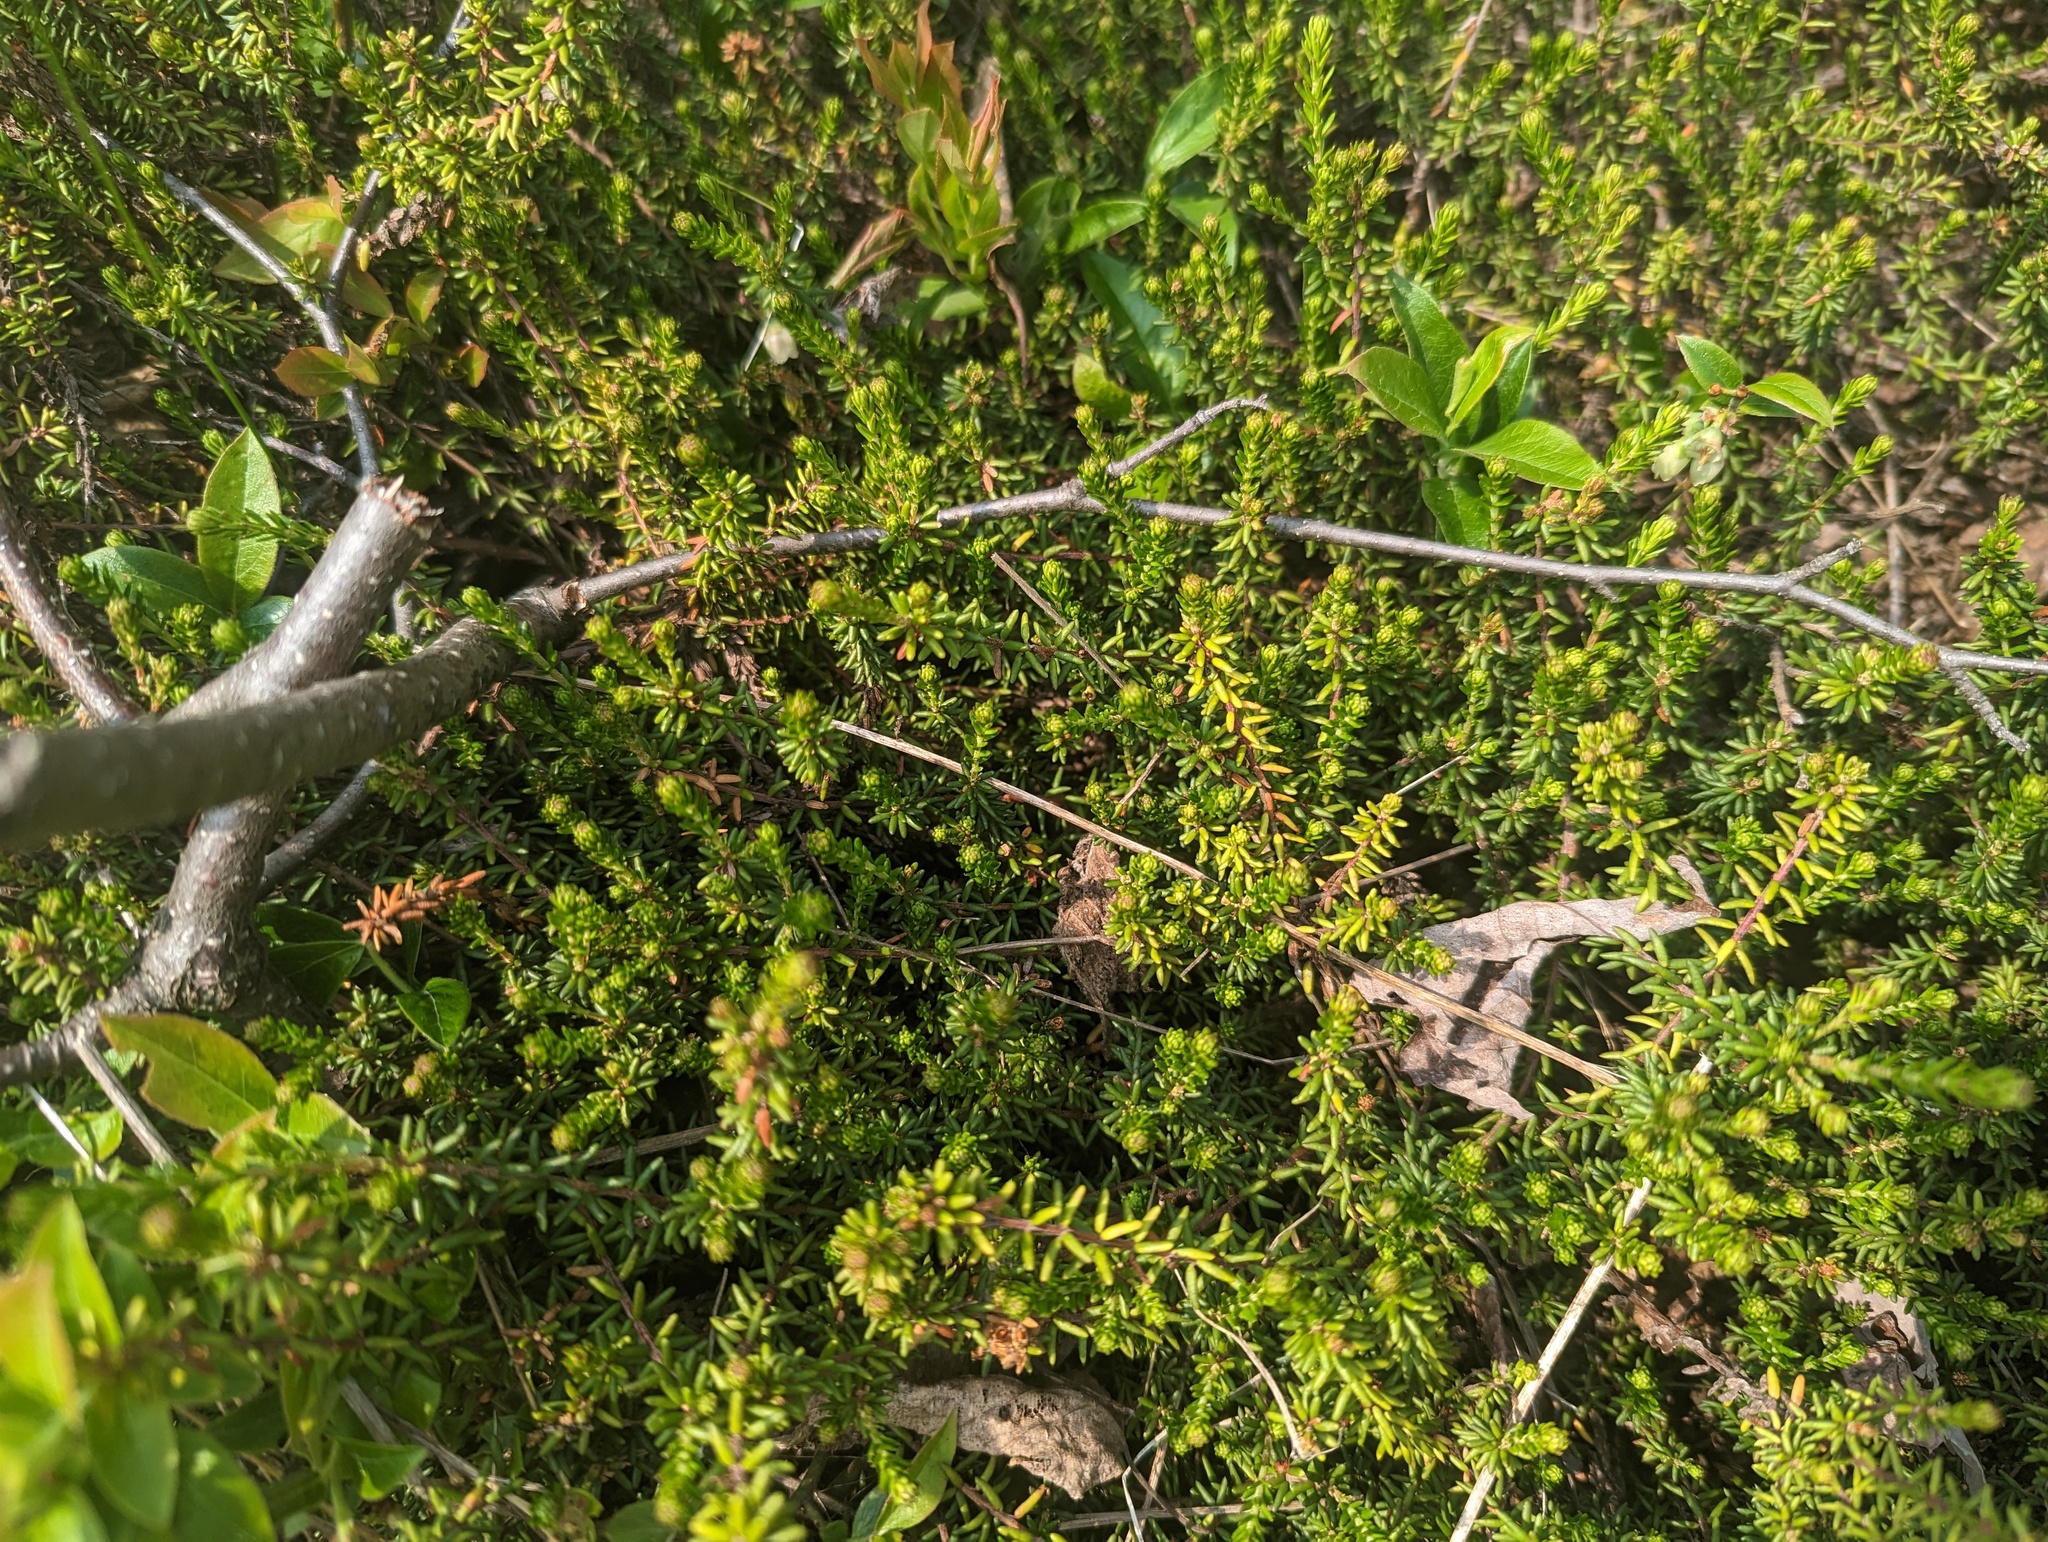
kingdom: Plantae
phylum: Tracheophyta
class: Magnoliopsida
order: Ericales
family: Ericaceae
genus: Empetrum
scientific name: Empetrum nigrum
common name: Black crowberry
